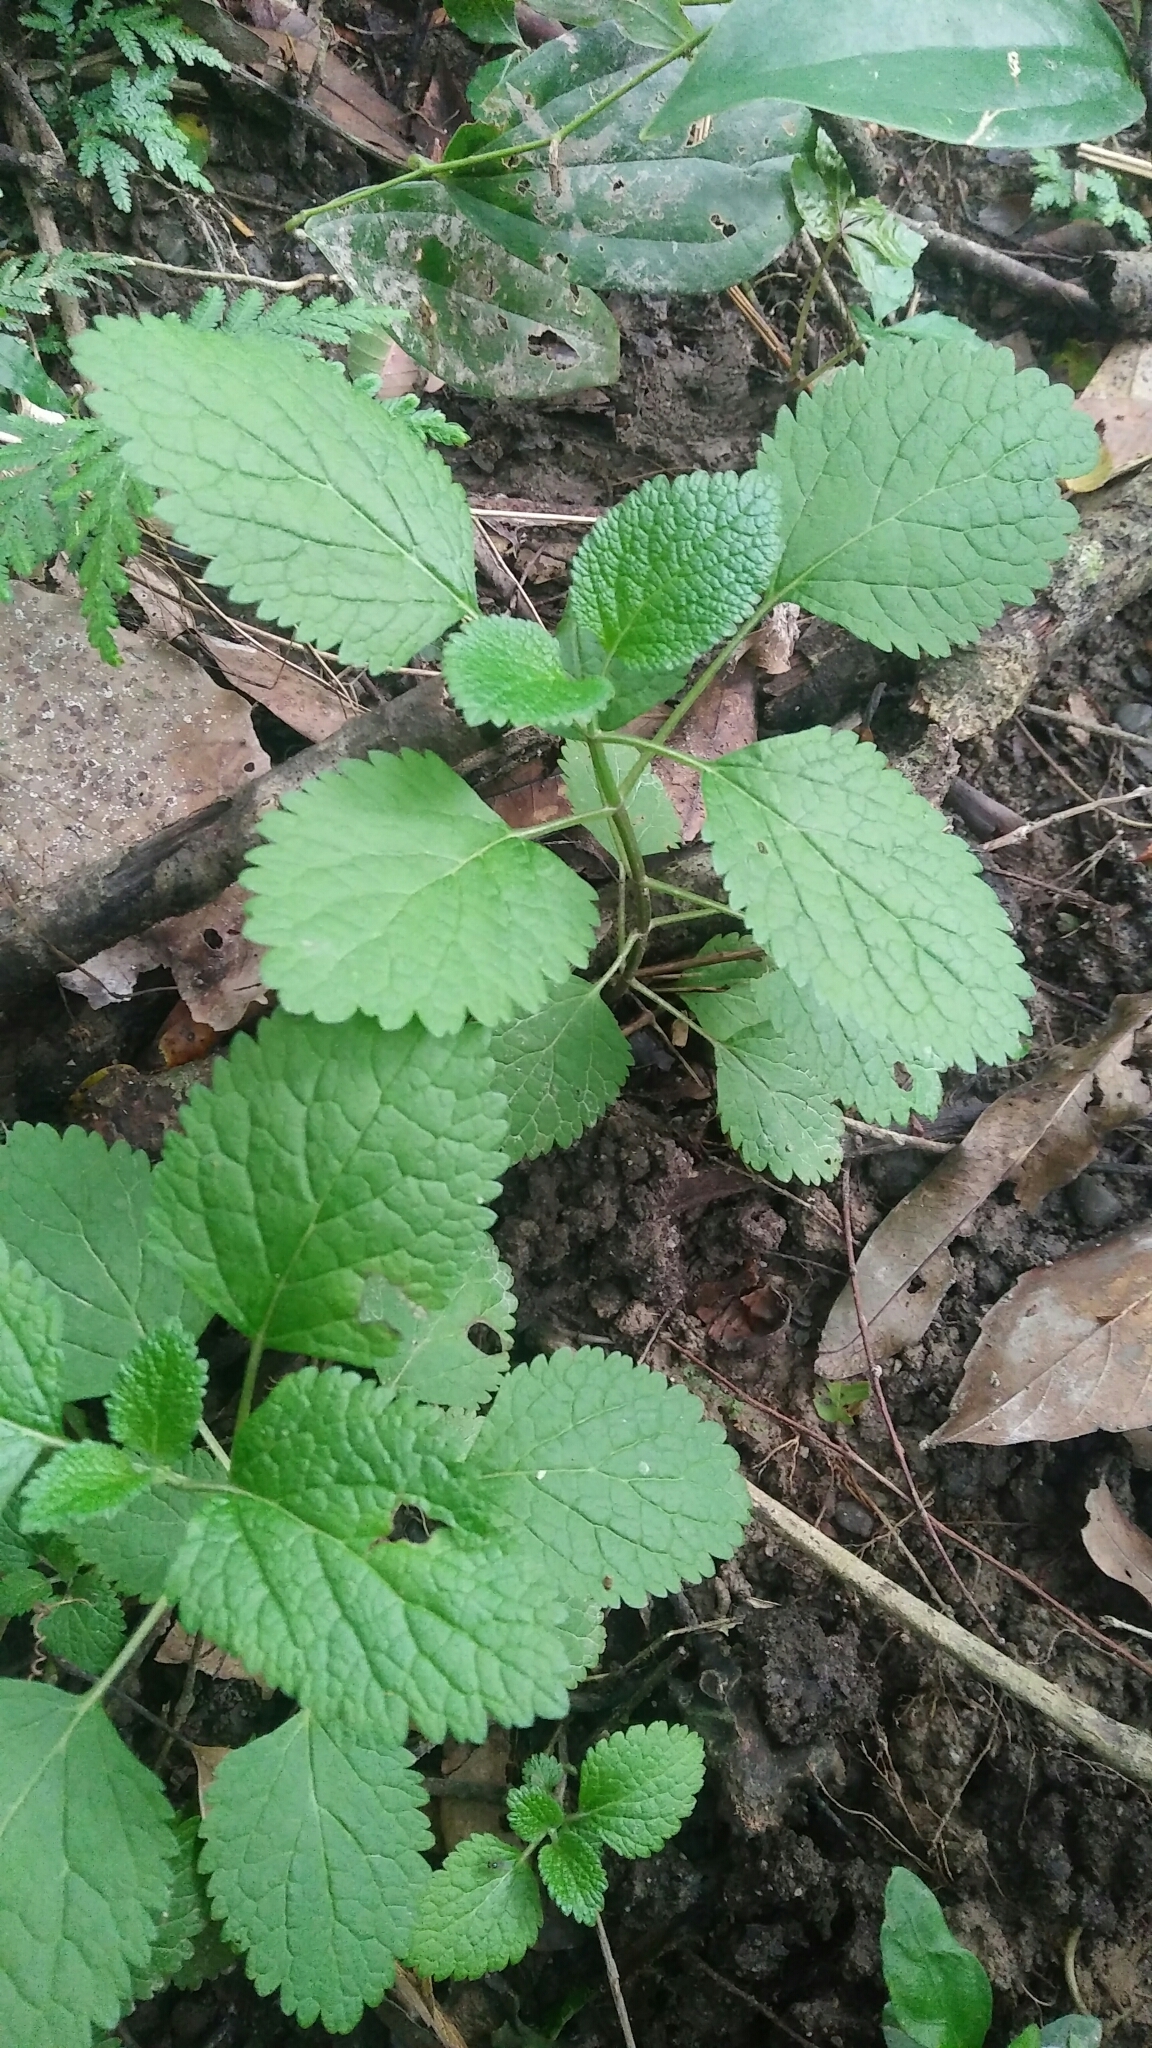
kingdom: Plantae
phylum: Tracheophyta
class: Magnoliopsida
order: Lamiales
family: Lamiaceae
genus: Teucrium
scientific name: Teucrium viscidum
